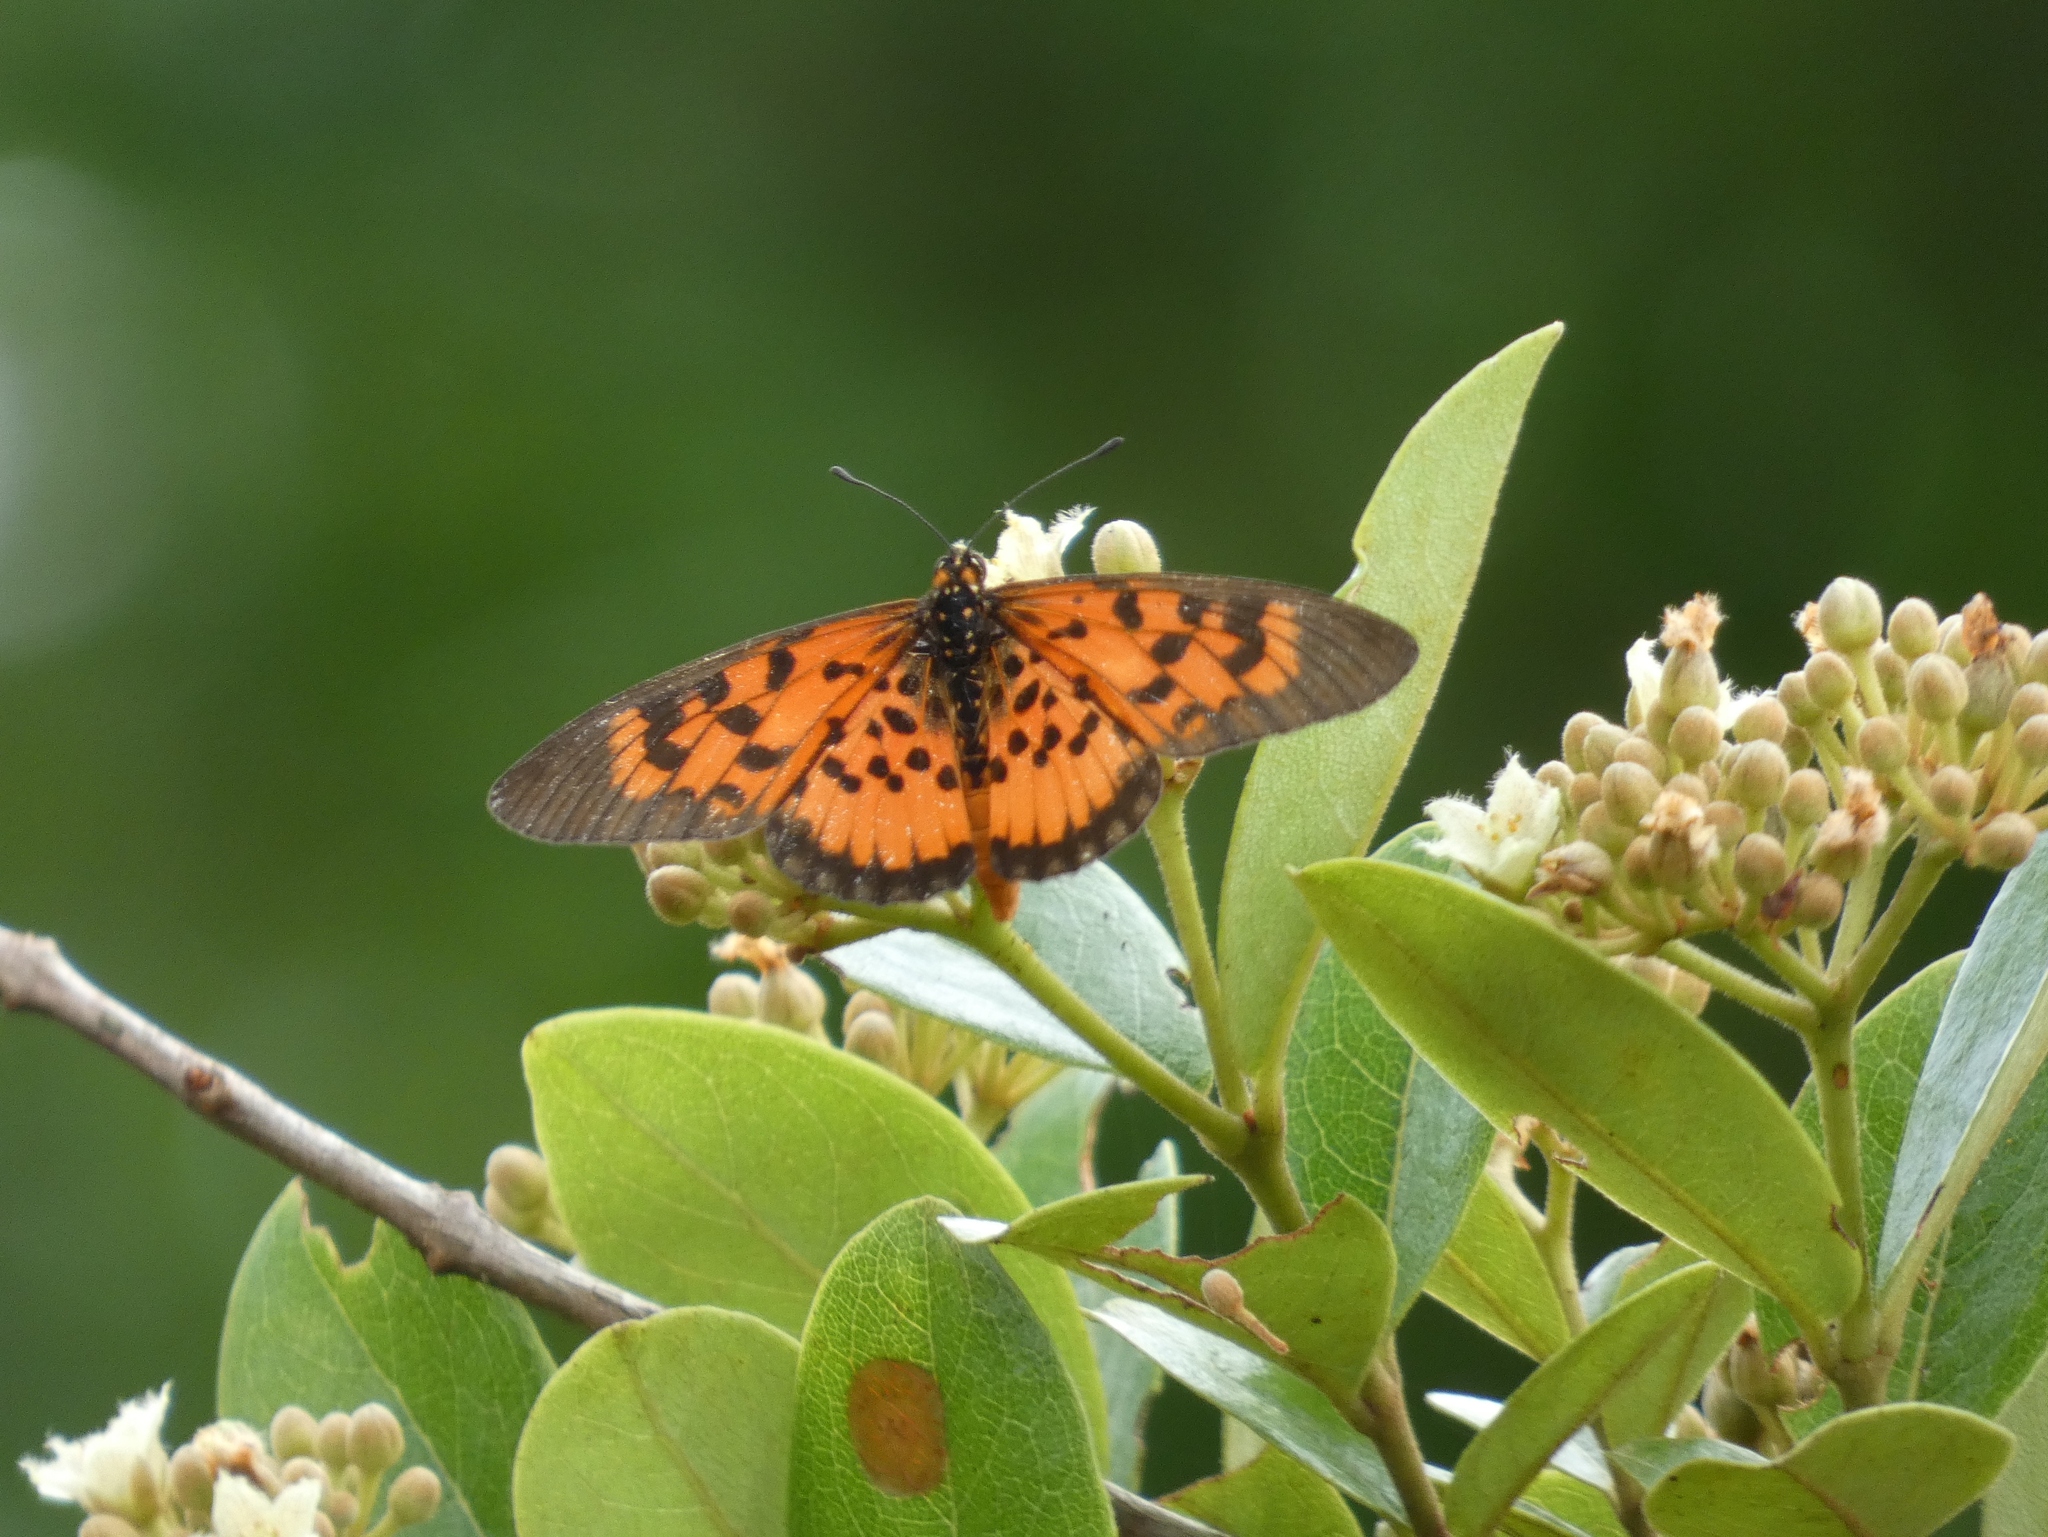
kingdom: Animalia
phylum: Arthropoda
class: Insecta
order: Lepidoptera
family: Nymphalidae
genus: Rubraea
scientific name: Rubraea
